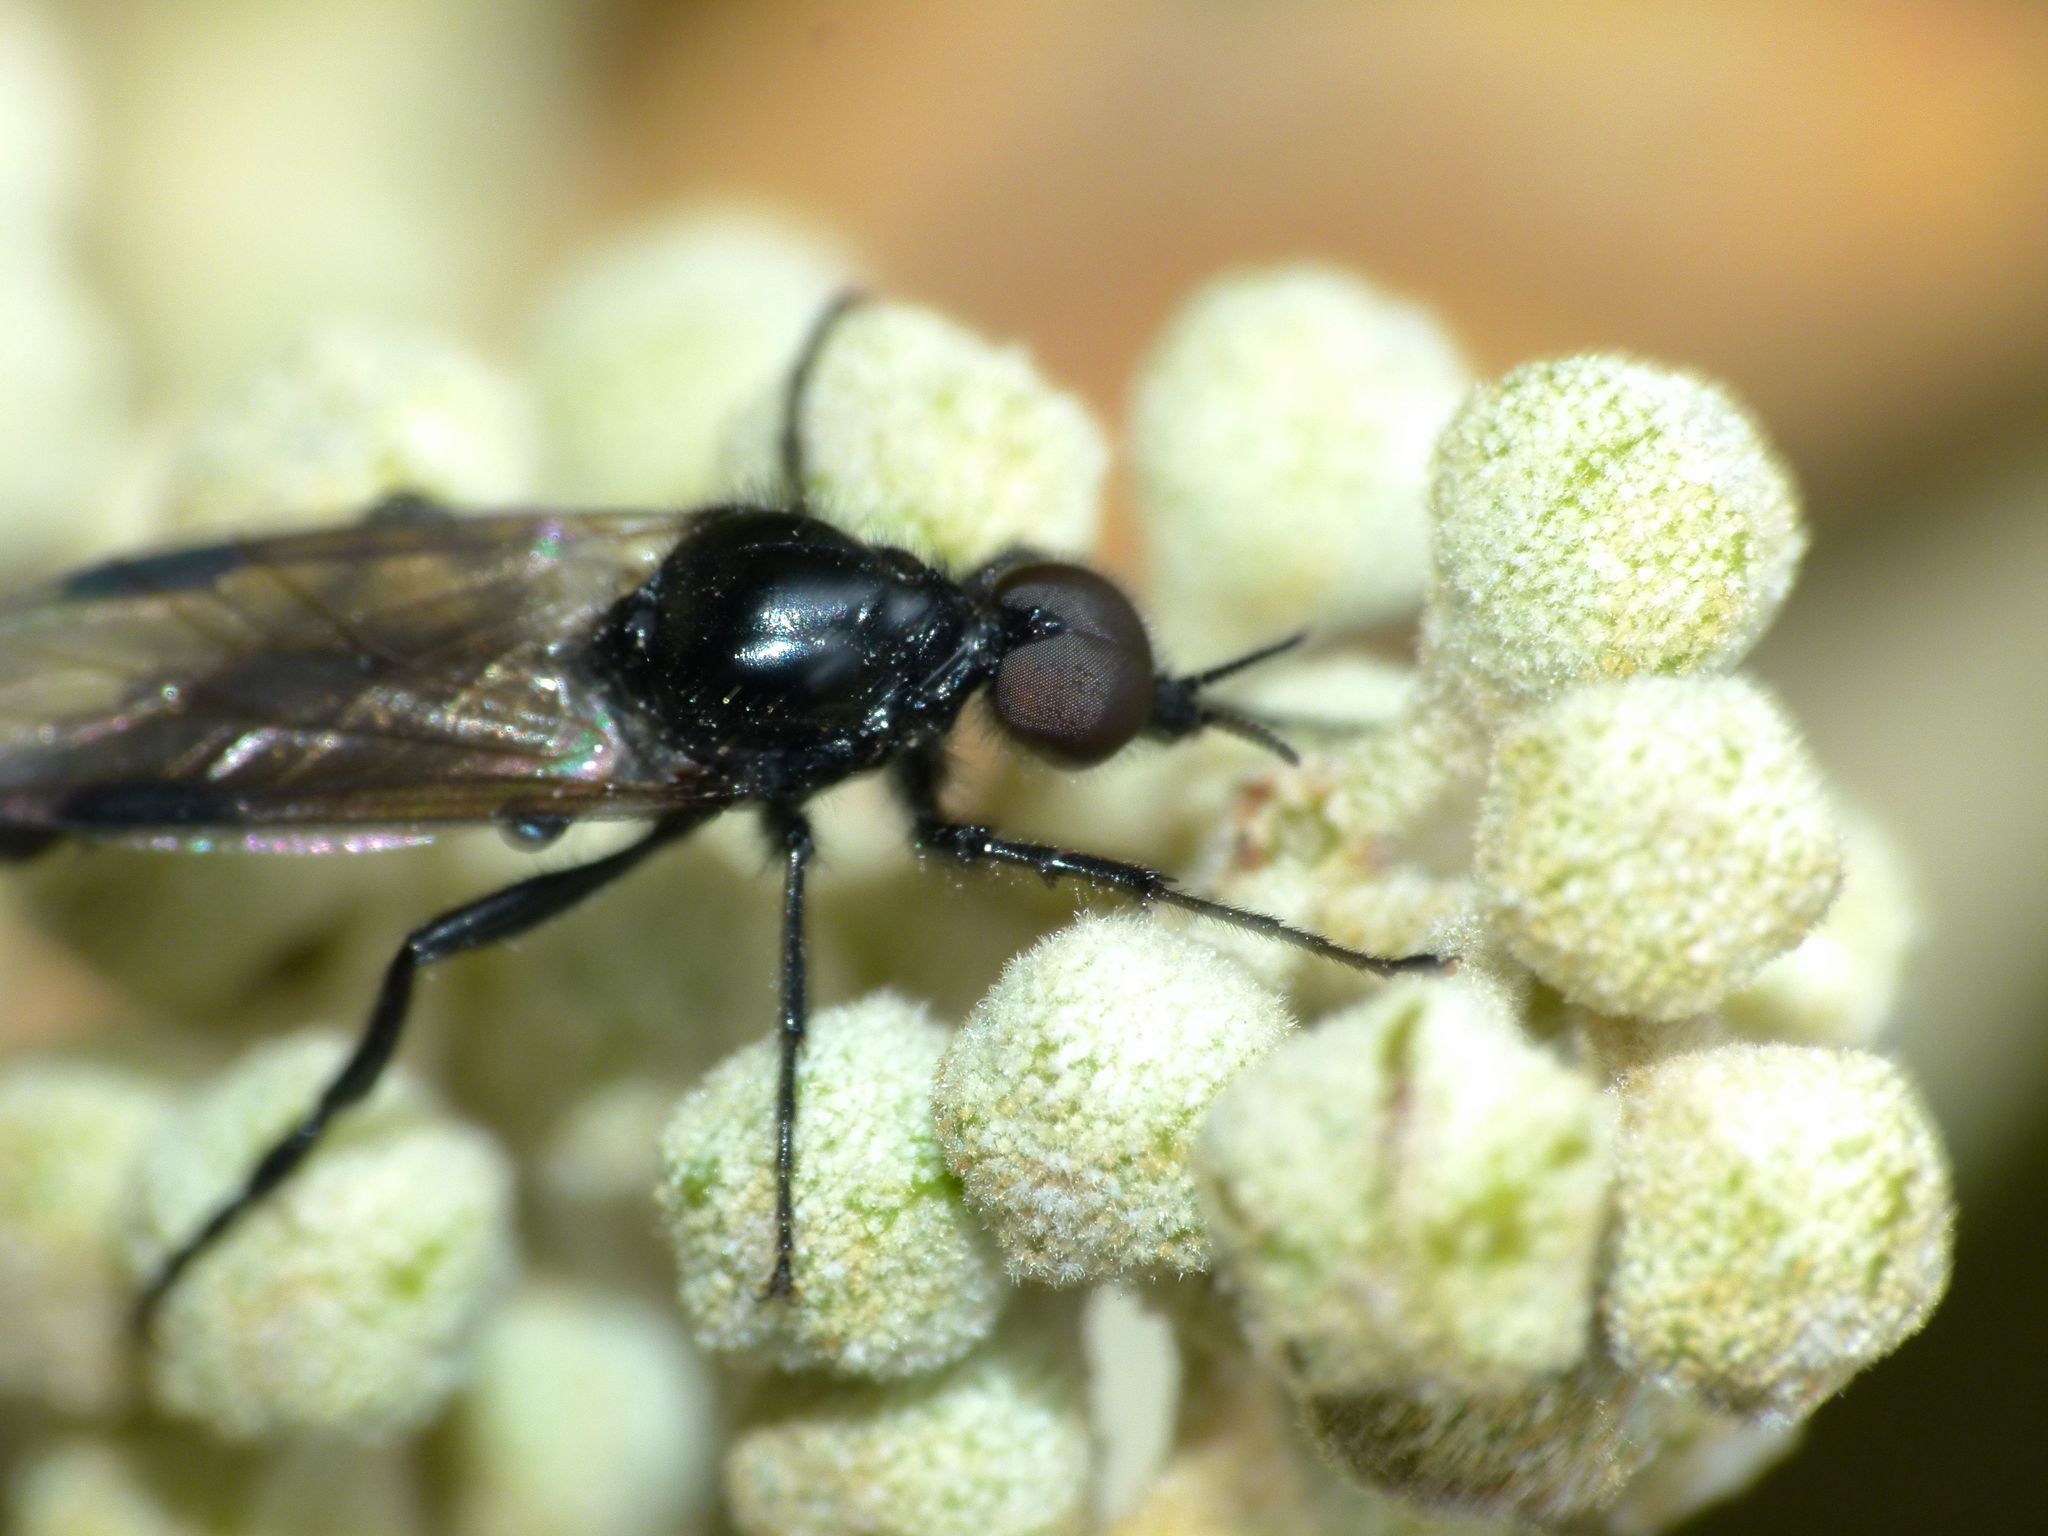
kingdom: Animalia
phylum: Arthropoda
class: Insecta
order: Diptera
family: Bibionidae
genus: Dilophus
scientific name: Dilophus nigrostigma
